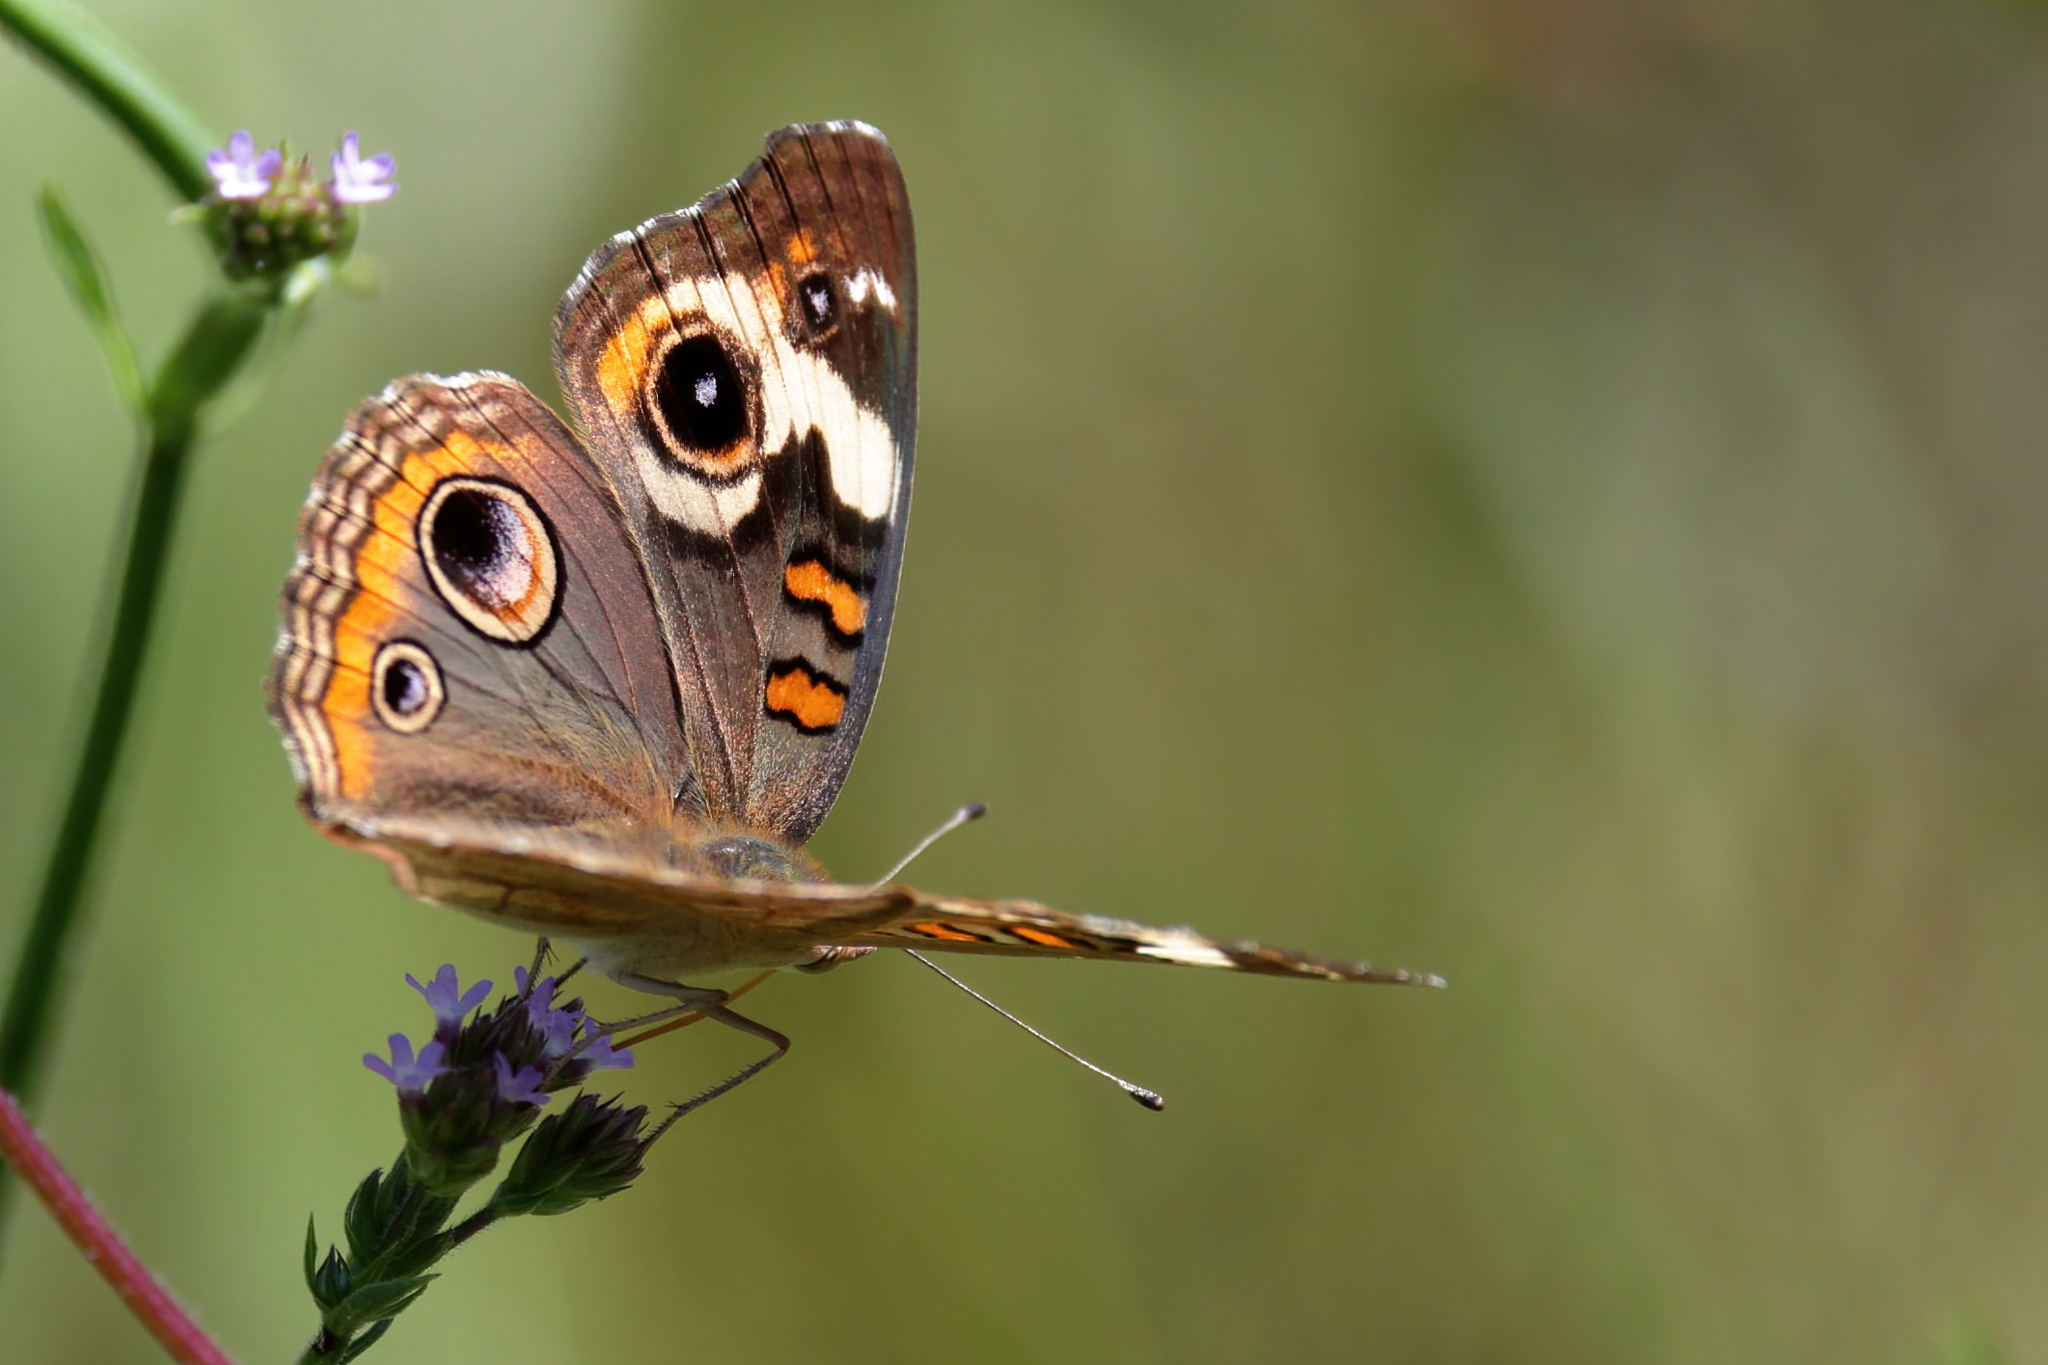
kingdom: Animalia
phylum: Arthropoda
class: Insecta
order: Lepidoptera
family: Nymphalidae
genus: Junonia
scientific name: Junonia coenia
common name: Common buckeye
